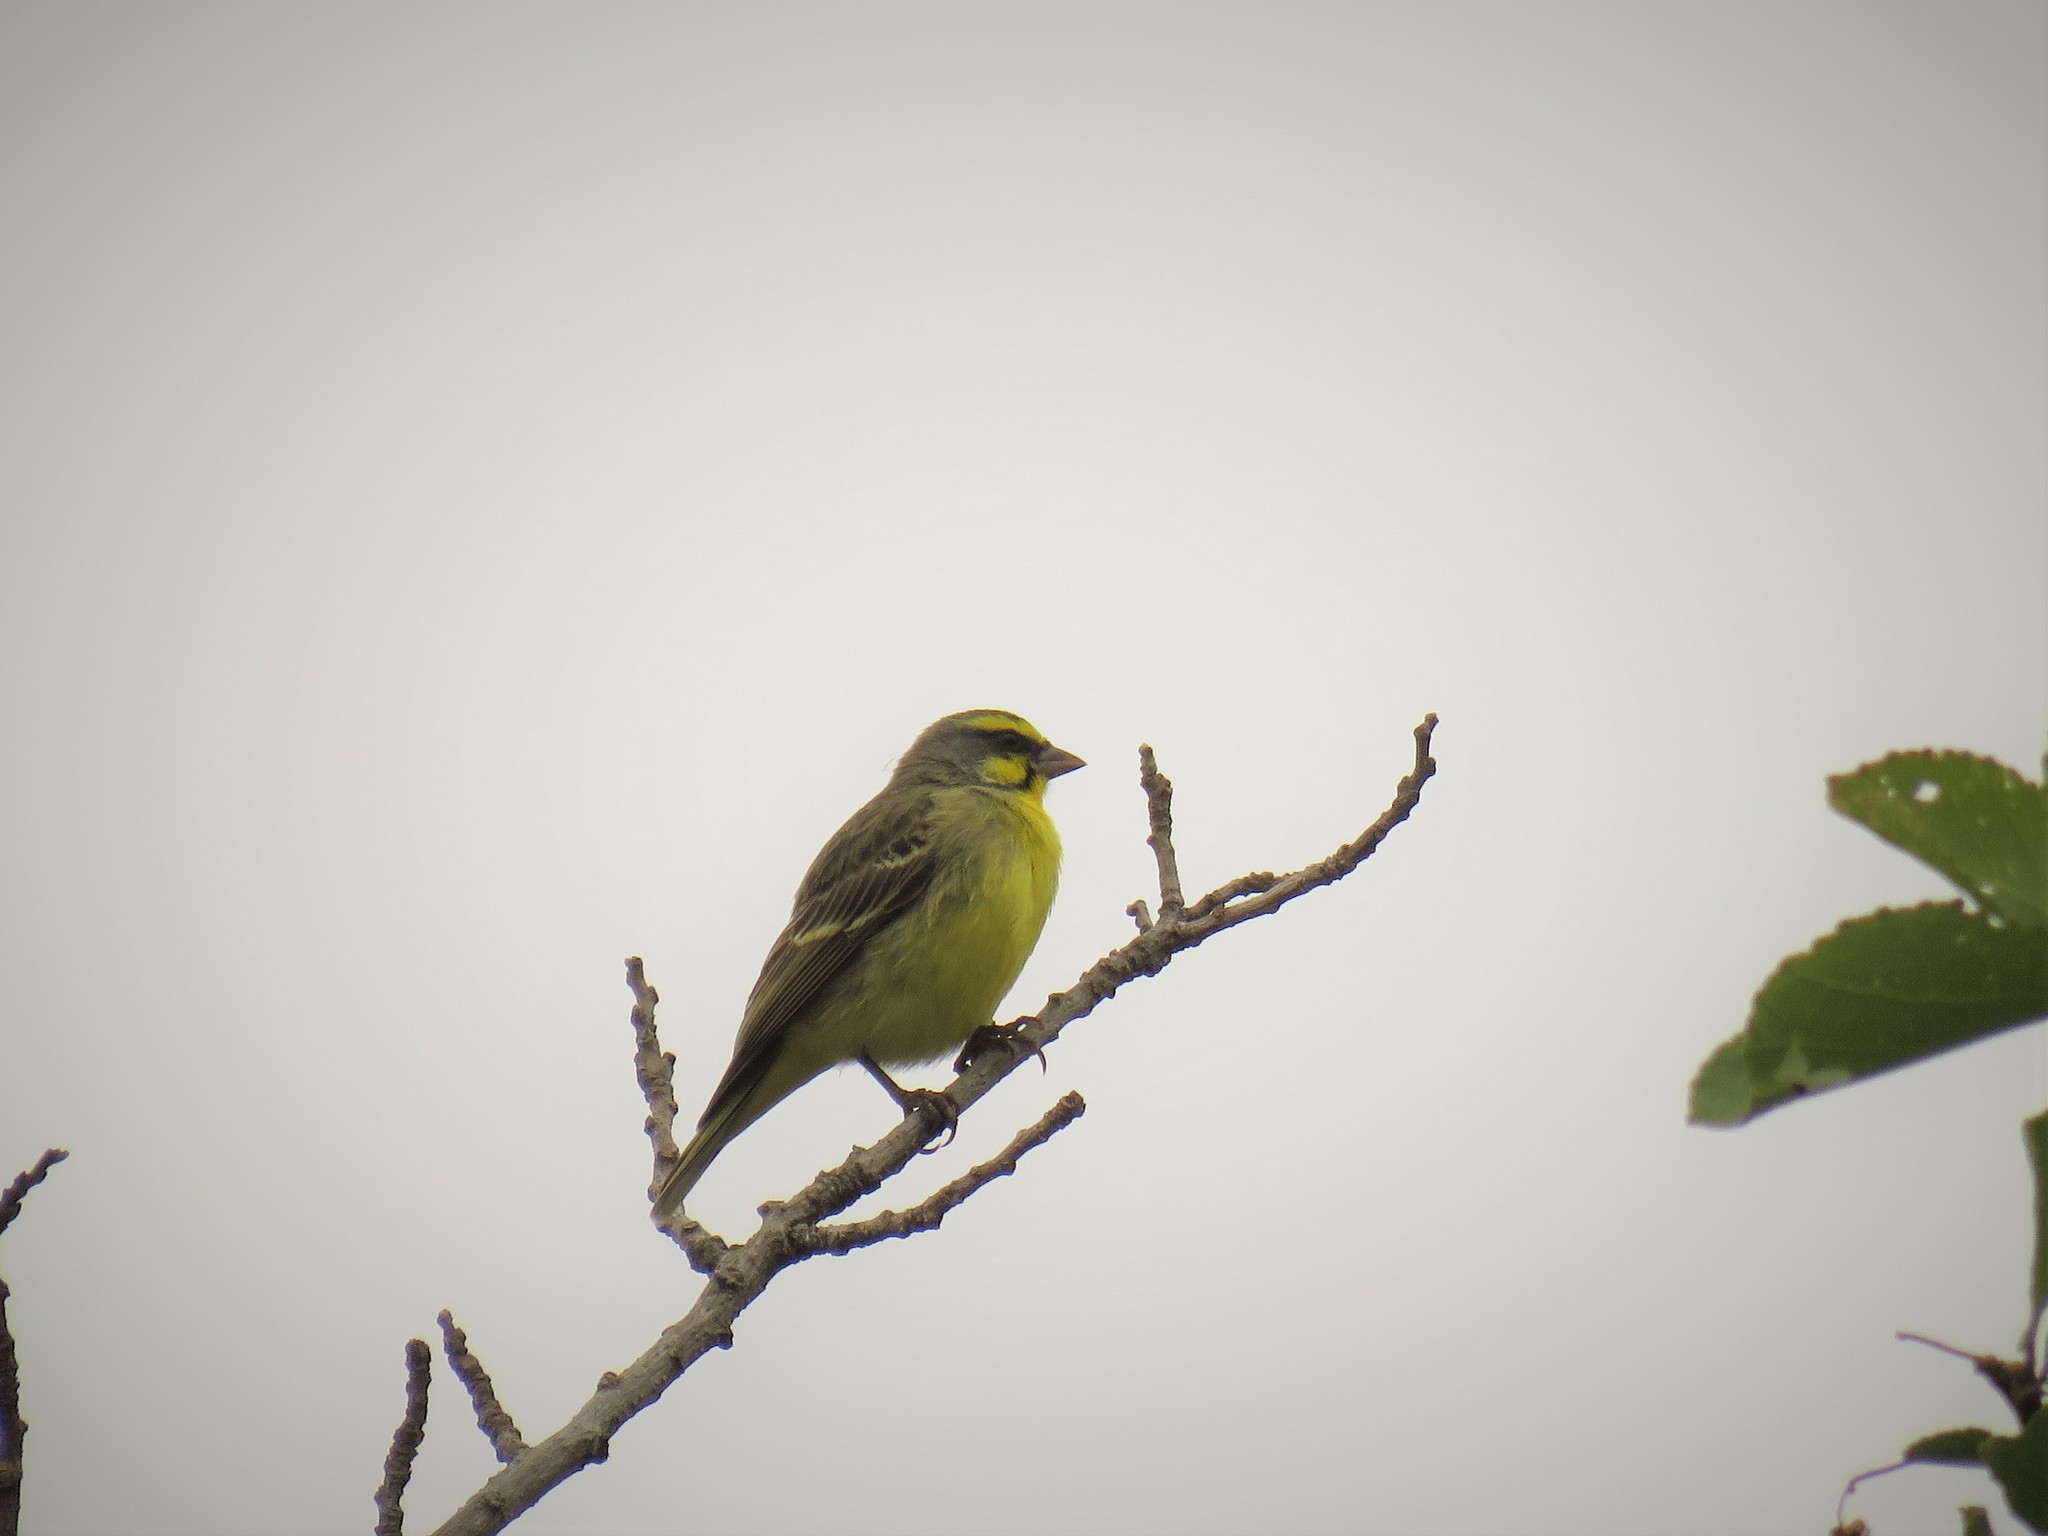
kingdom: Animalia
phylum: Chordata
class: Aves
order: Passeriformes
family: Fringillidae
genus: Crithagra
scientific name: Crithagra mozambica
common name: Yellow-fronted canary
